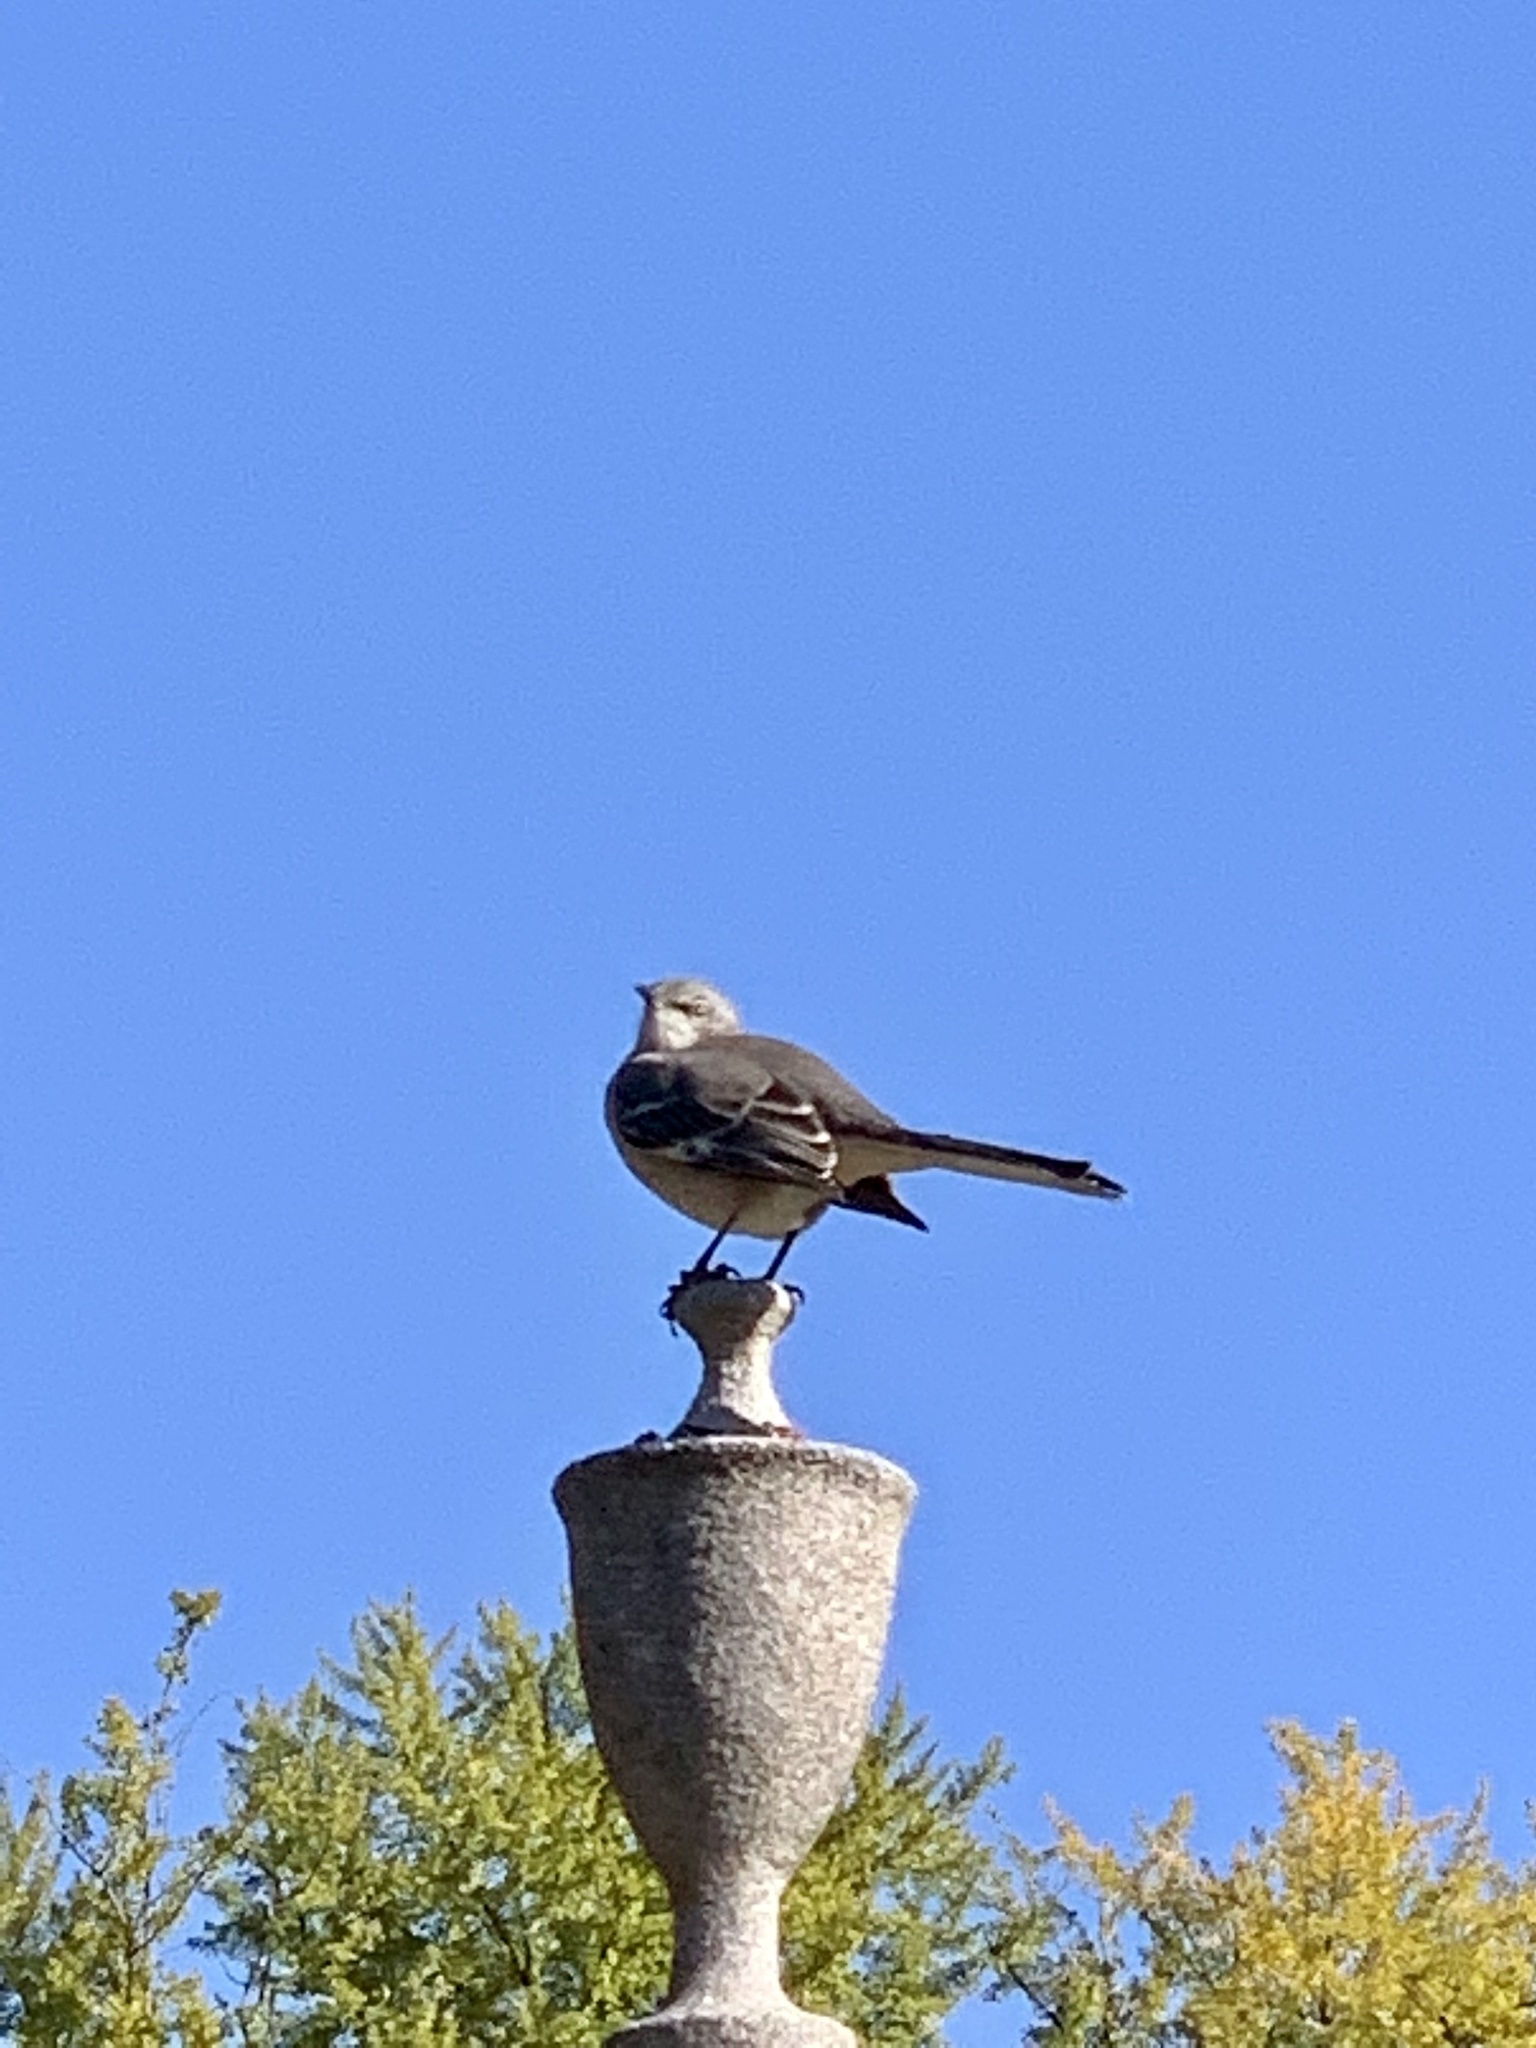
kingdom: Animalia
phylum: Chordata
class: Aves
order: Passeriformes
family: Mimidae
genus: Mimus
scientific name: Mimus polyglottos
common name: Northern mockingbird
